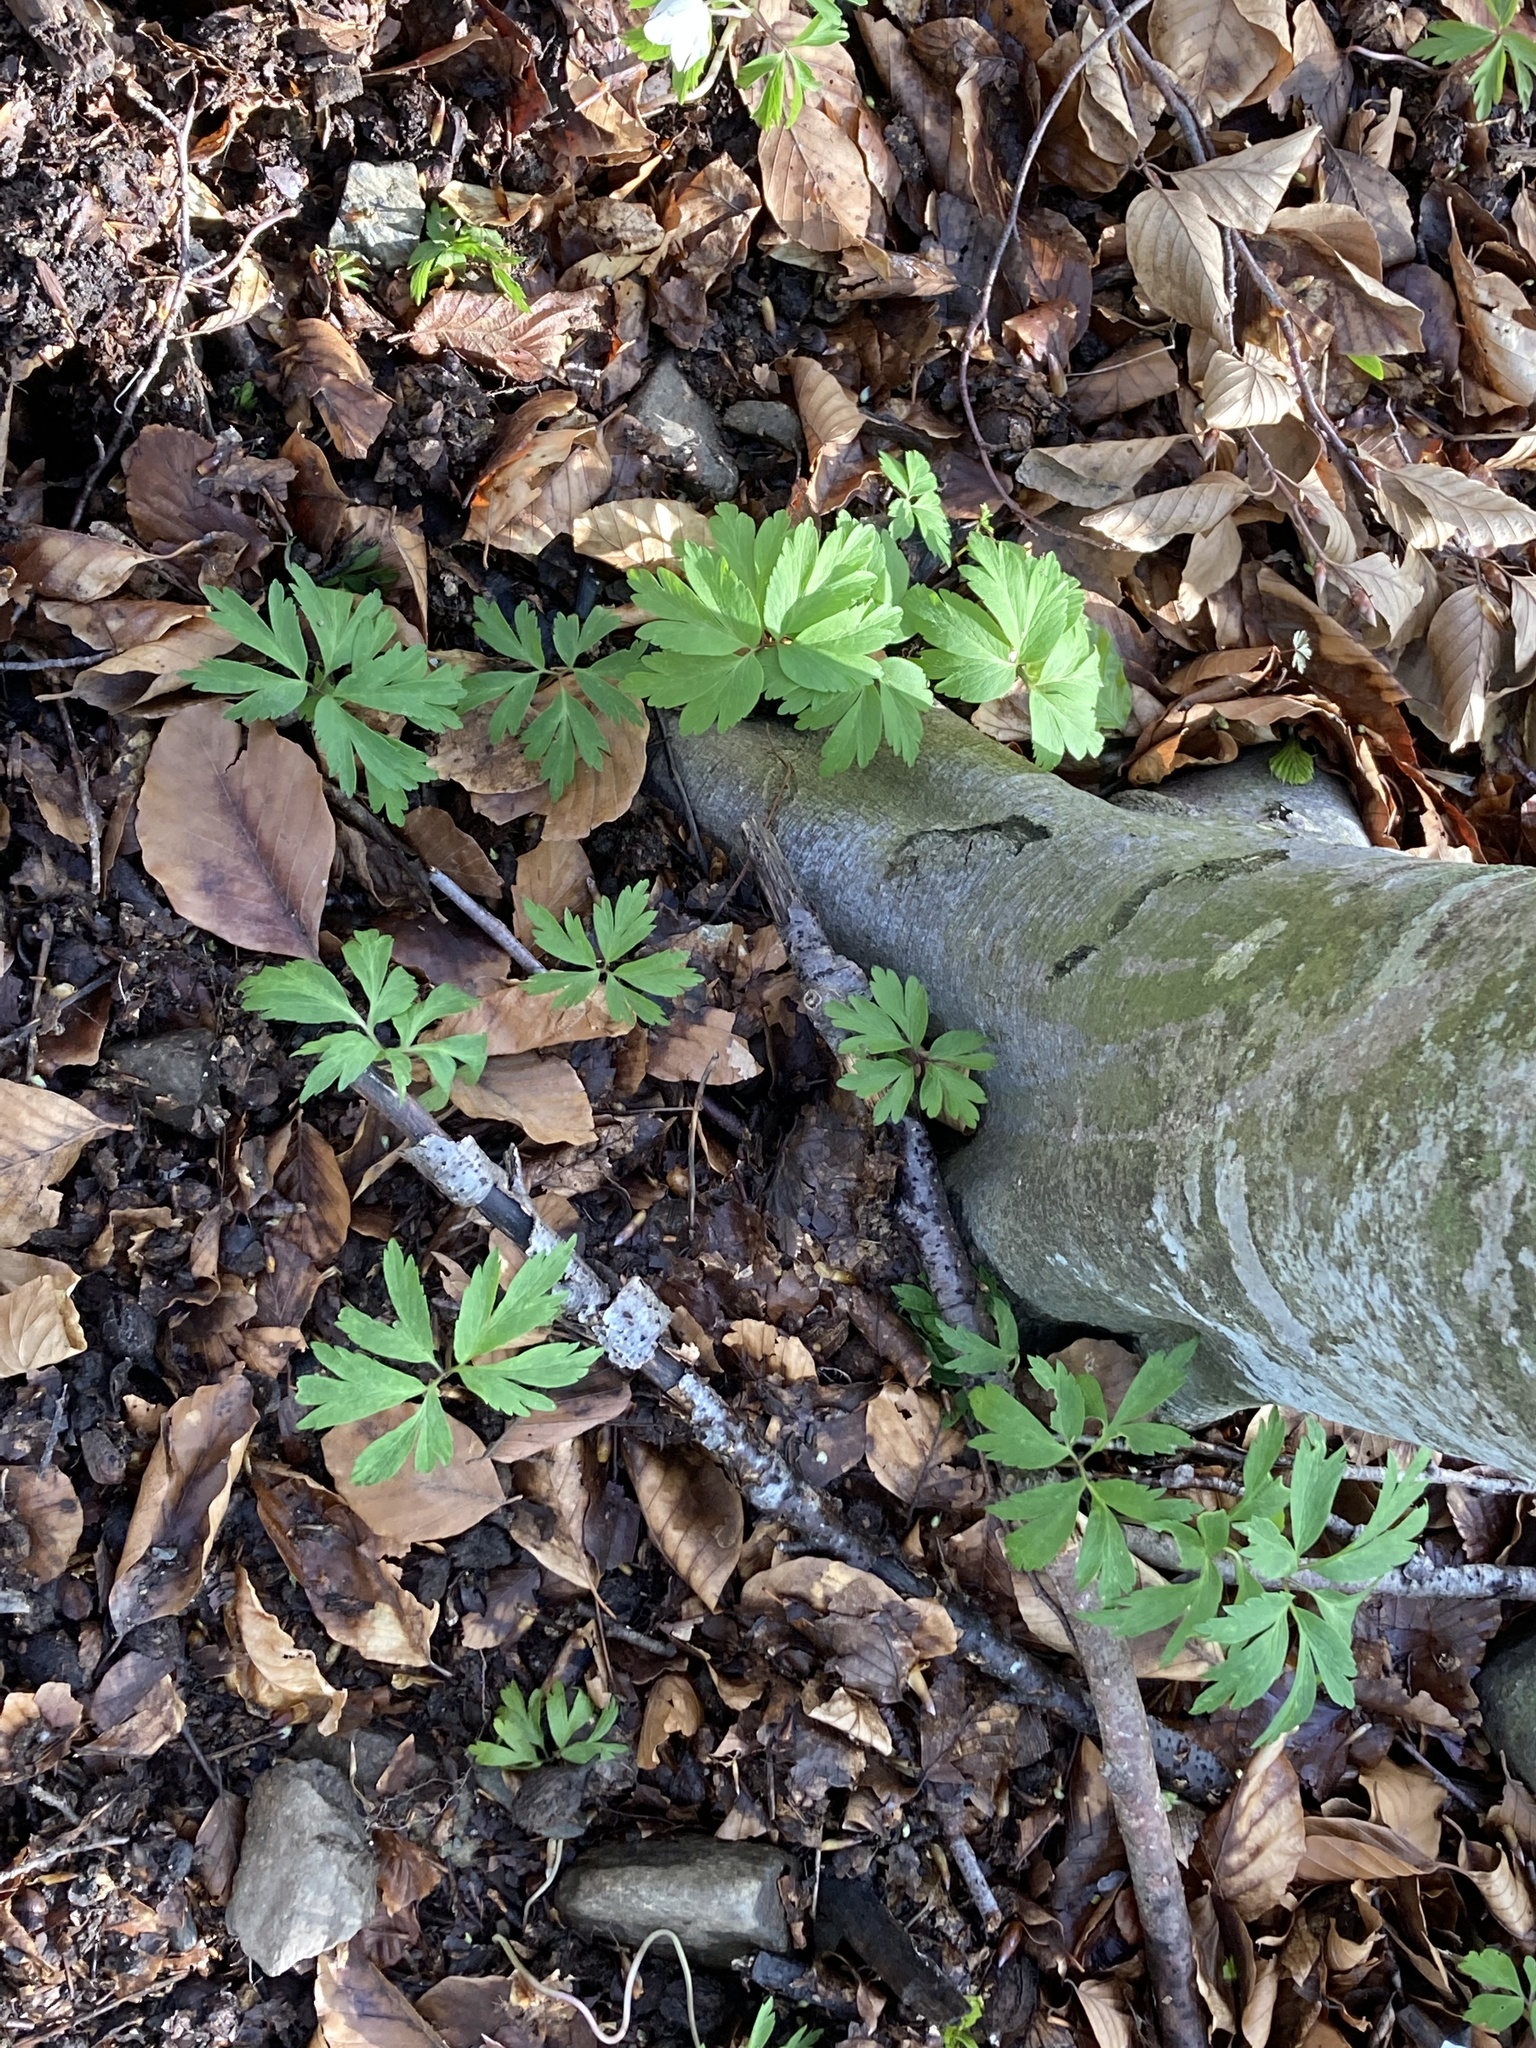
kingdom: Plantae
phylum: Tracheophyta
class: Magnoliopsida
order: Ranunculales
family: Ranunculaceae
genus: Anemone
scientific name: Anemone nemorosa
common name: Wood anemone
